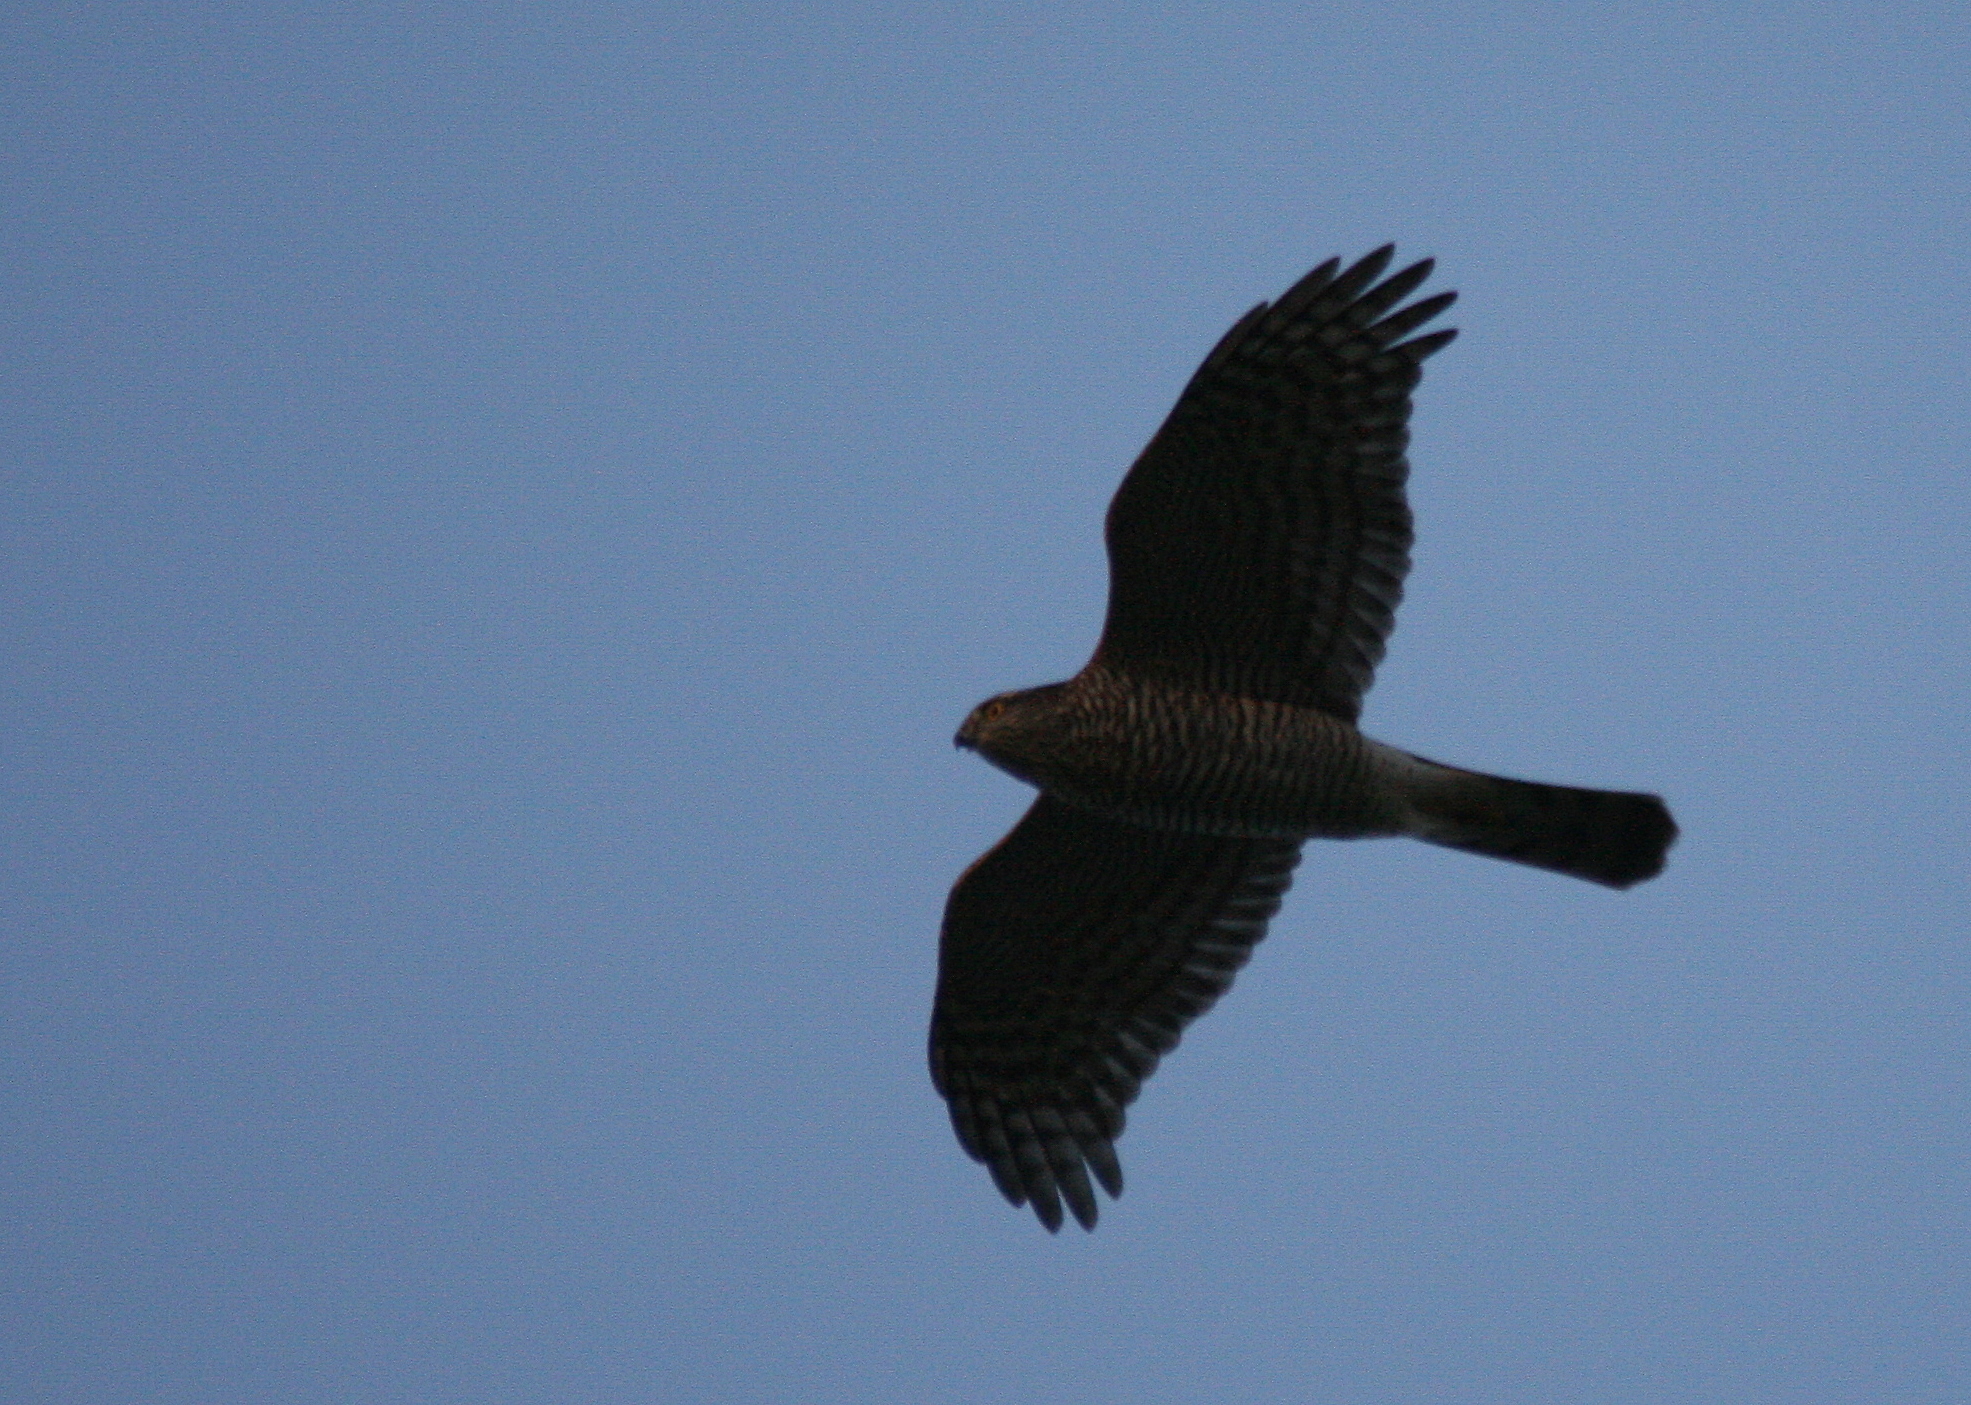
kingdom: Animalia
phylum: Chordata
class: Aves
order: Accipitriformes
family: Accipitridae
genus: Accipiter
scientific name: Accipiter nisus
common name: Eurasian sparrowhawk
